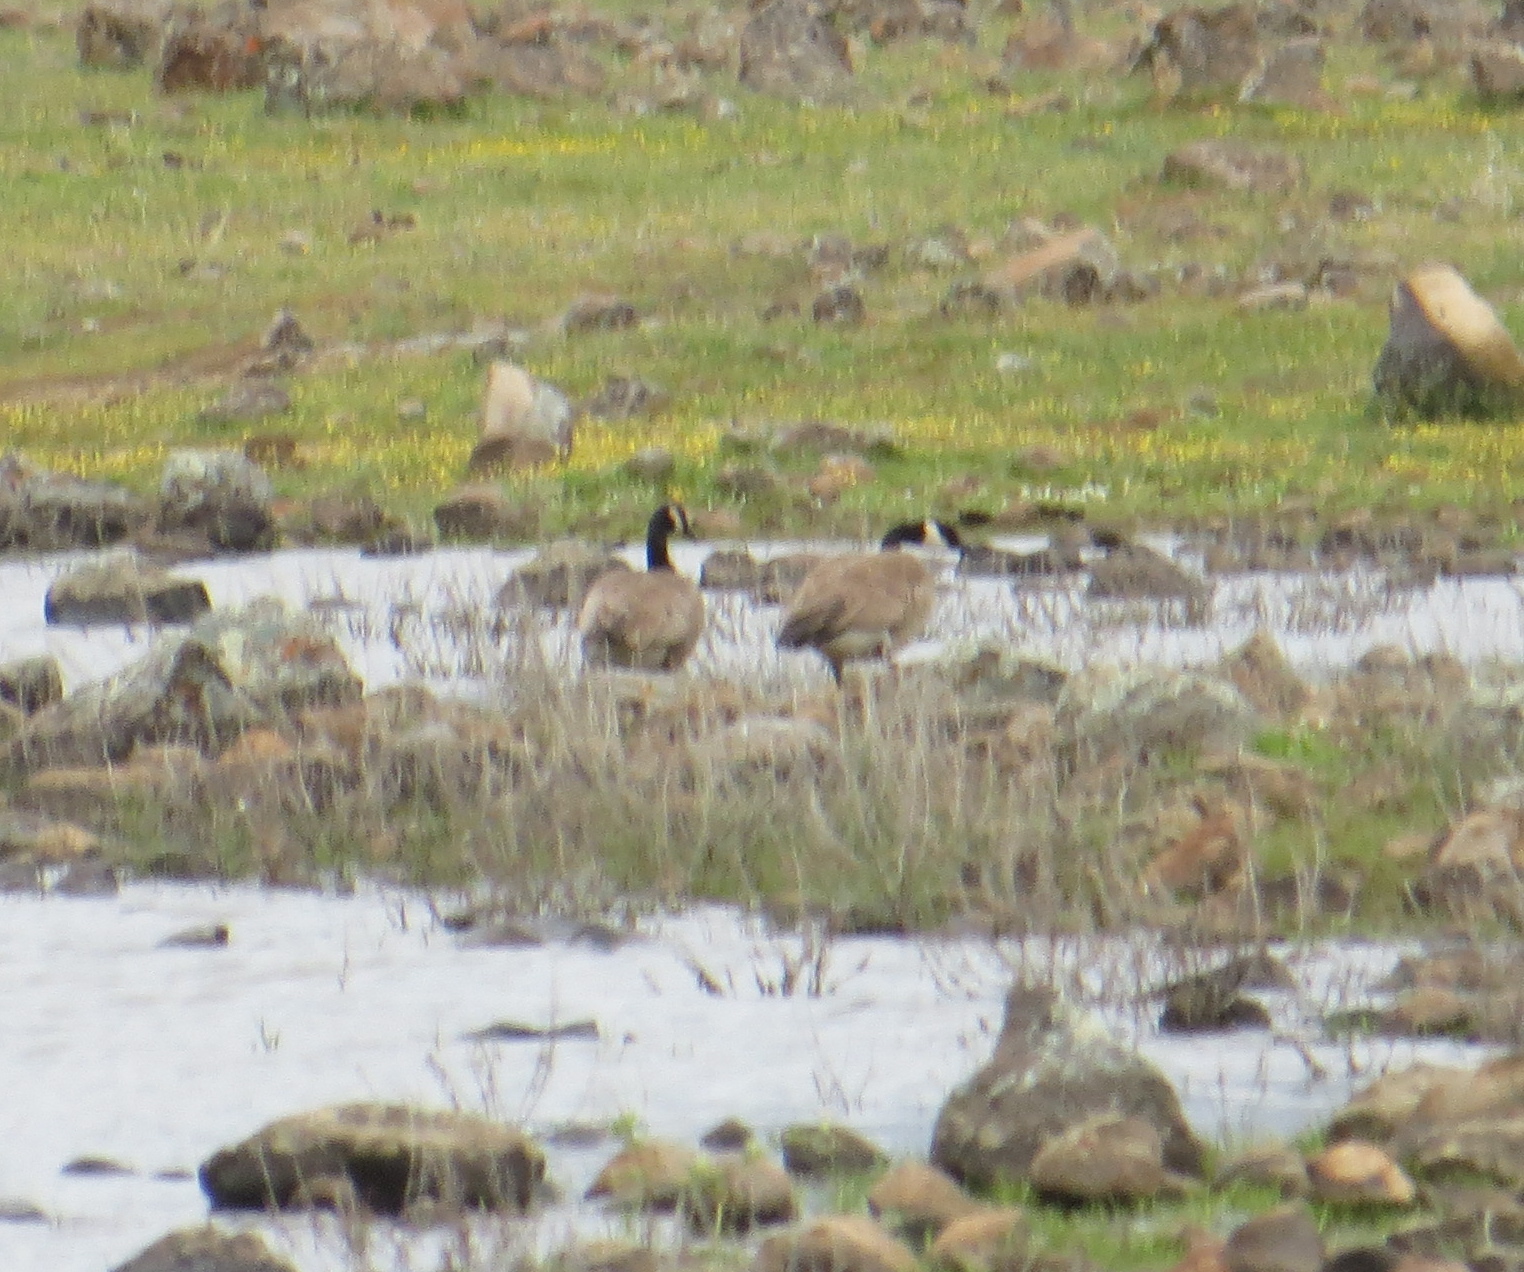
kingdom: Animalia
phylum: Chordata
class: Aves
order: Anseriformes
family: Anatidae
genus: Branta
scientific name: Branta canadensis
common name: Canada goose
